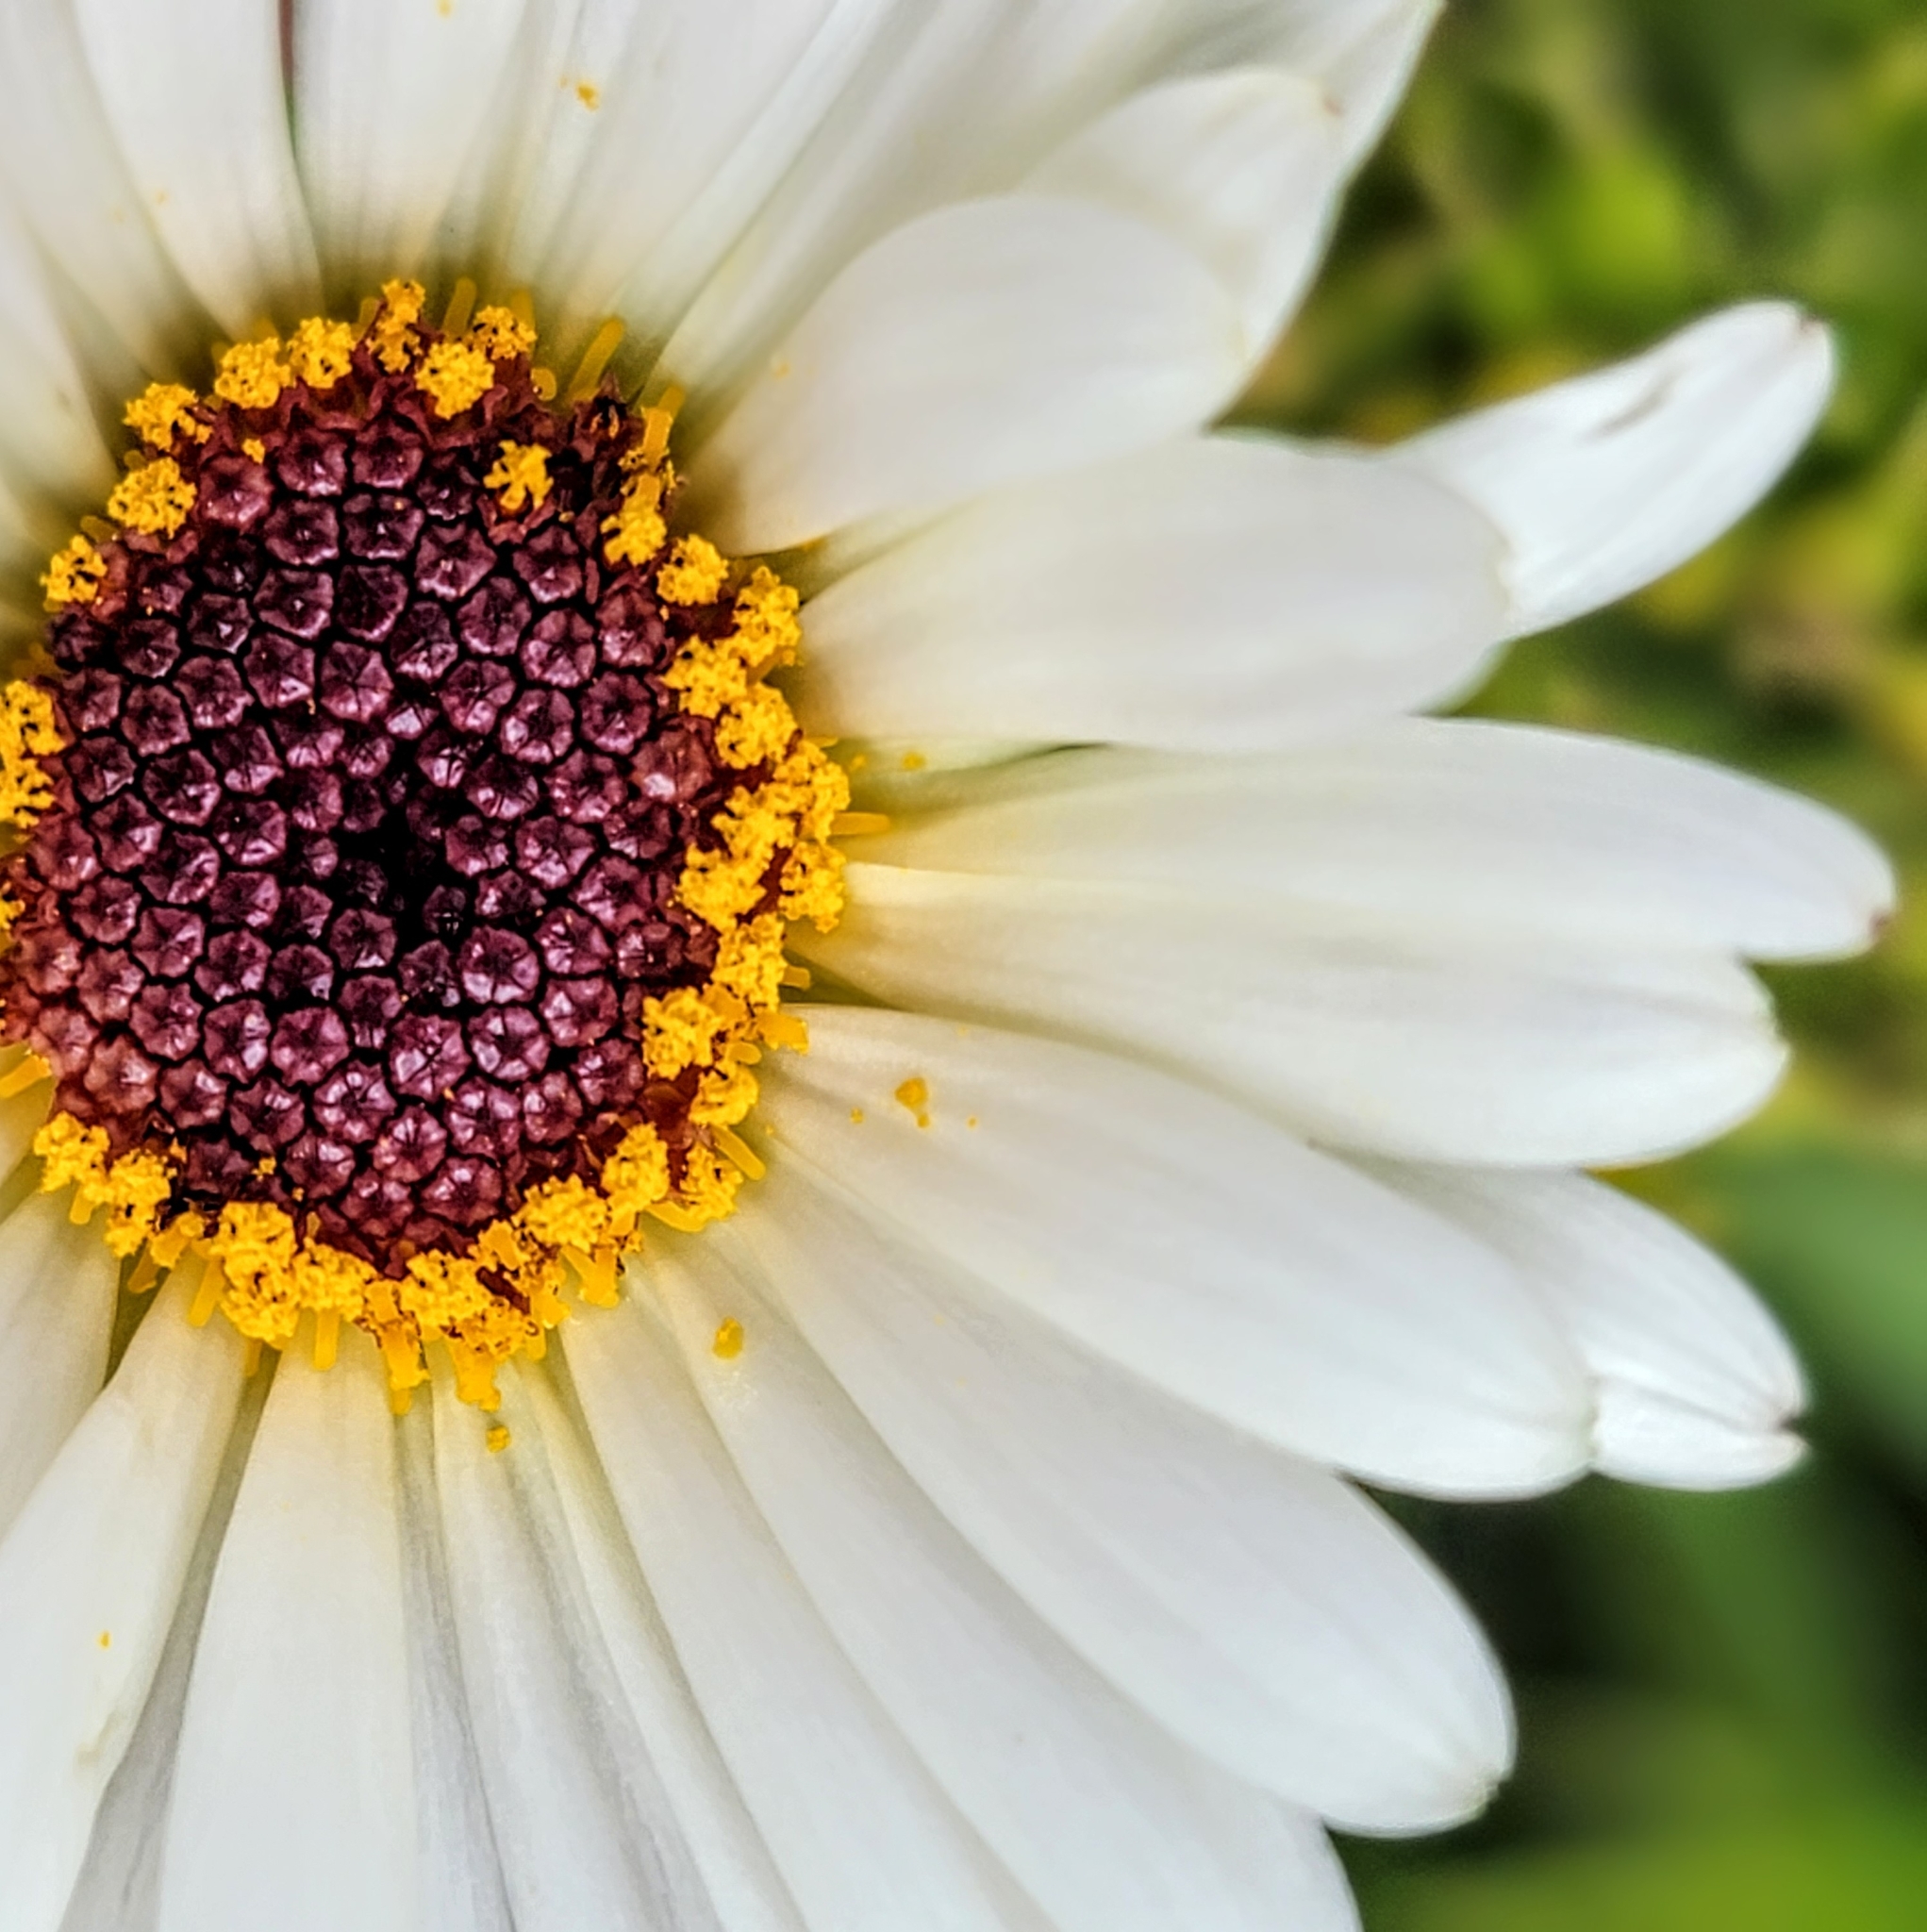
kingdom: Plantae
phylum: Tracheophyta
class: Magnoliopsida
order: Asterales
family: Asteraceae
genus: Dolichoglottis
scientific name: Dolichoglottis scorzoneroides
